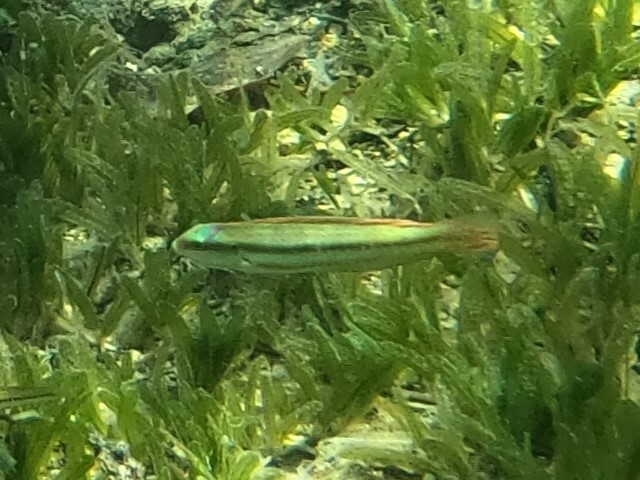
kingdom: Animalia
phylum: Chordata
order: Perciformes
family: Labridae
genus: Halichoeres
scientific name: Halichoeres bivittatus
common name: Slippery dick
